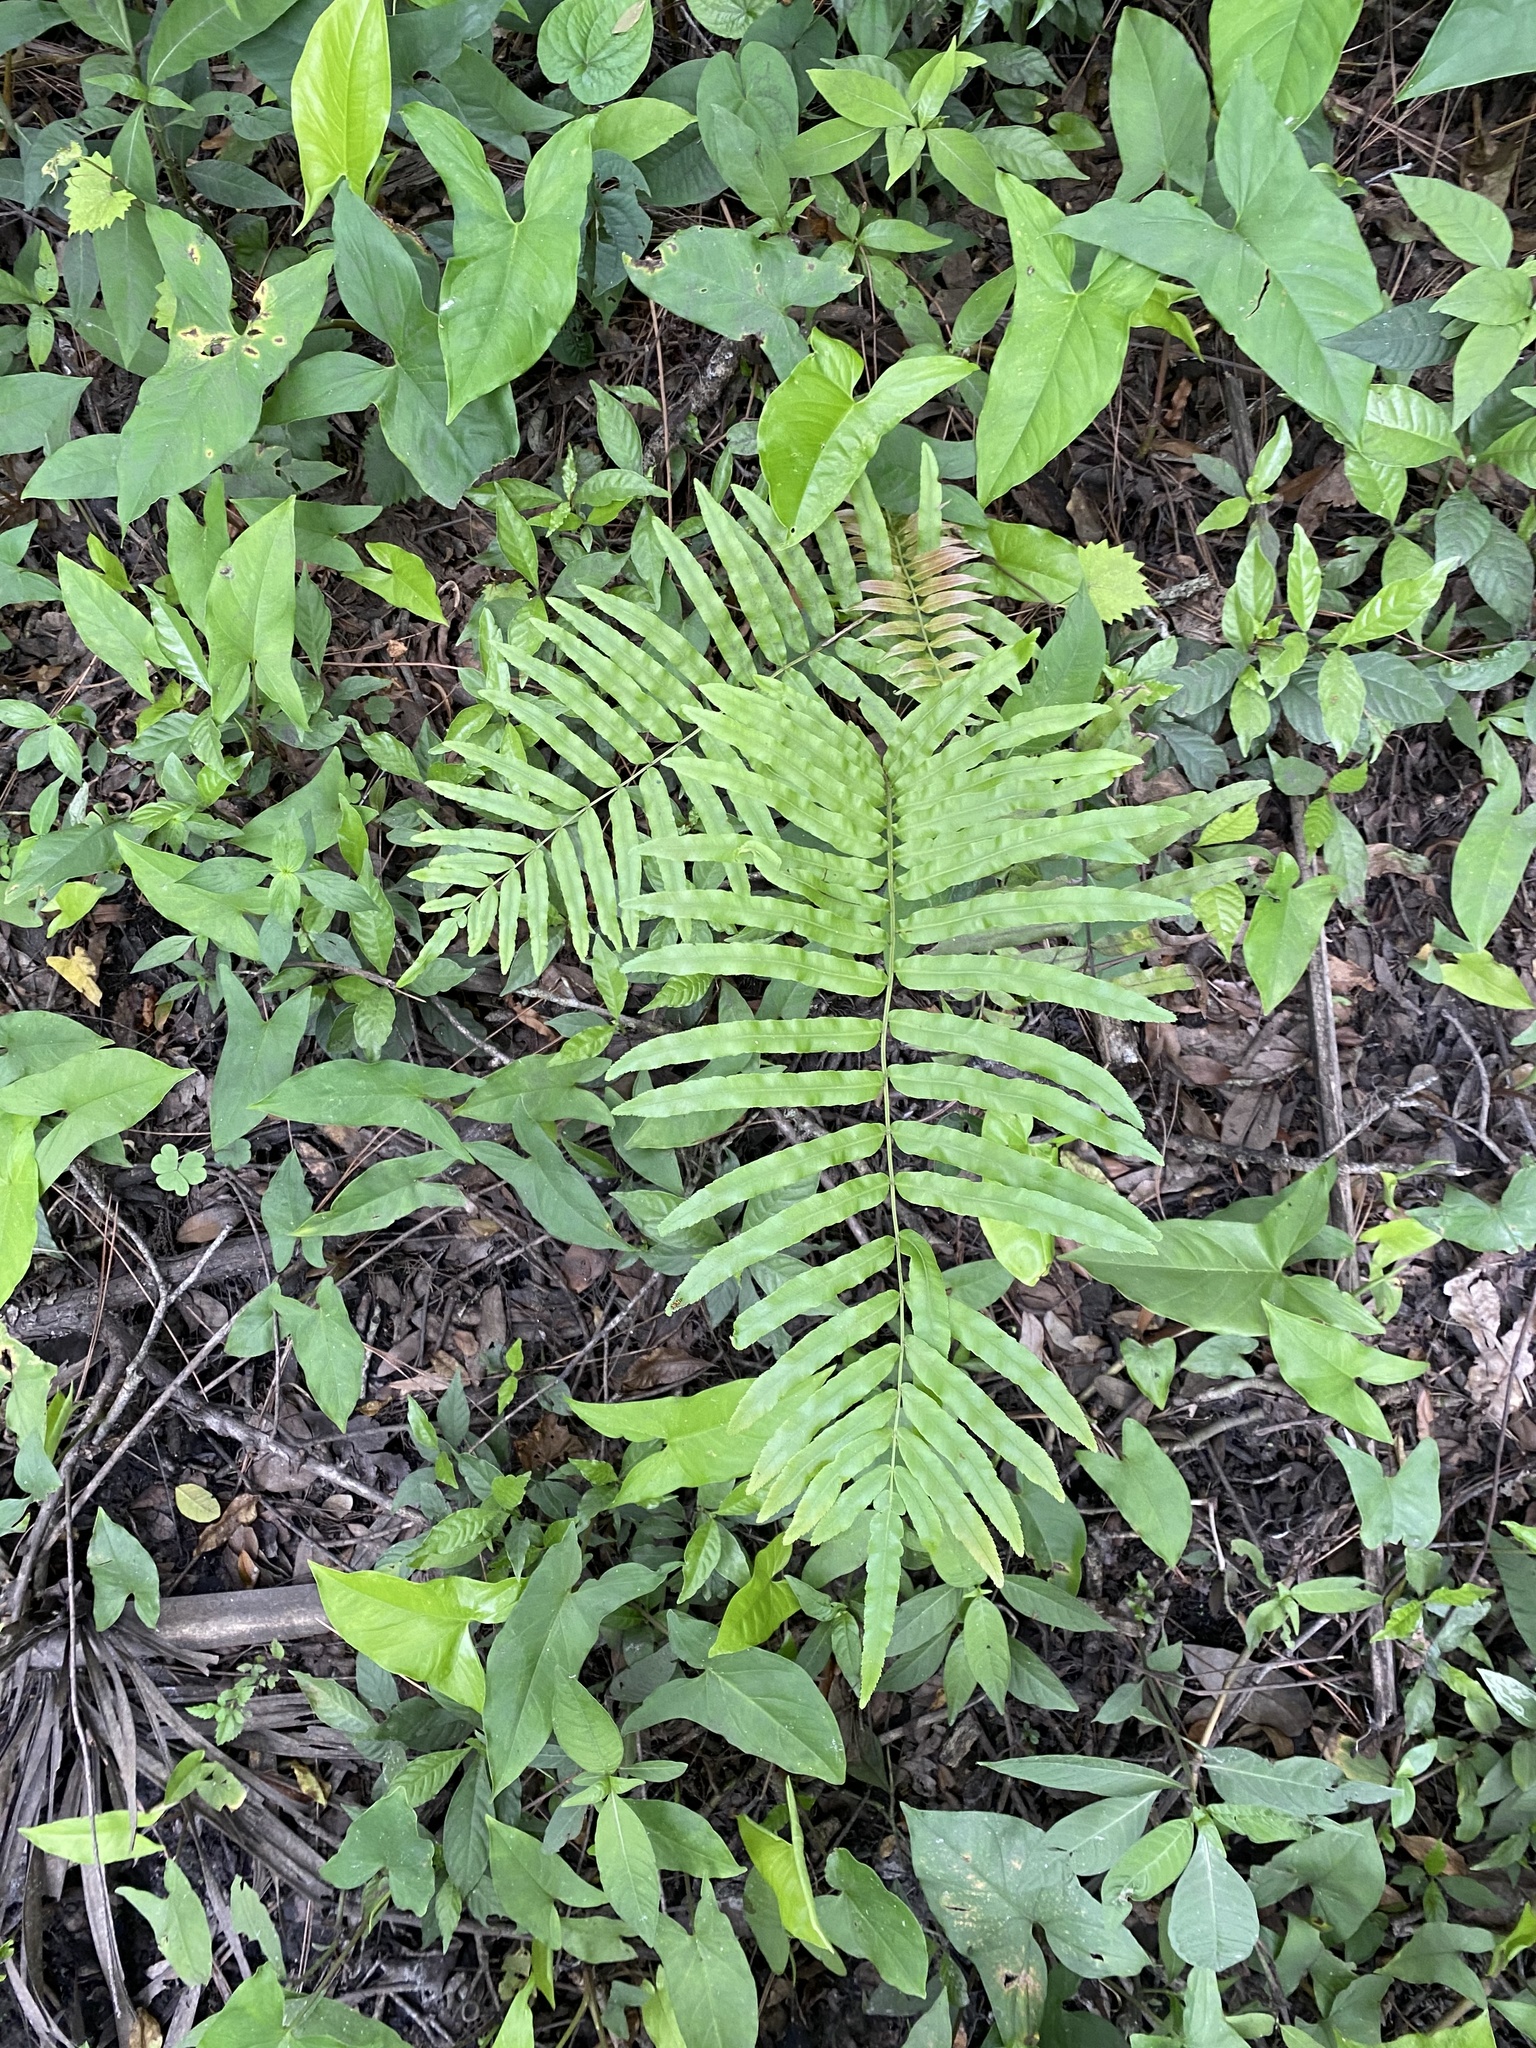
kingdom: Plantae
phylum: Tracheophyta
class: Polypodiopsida
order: Polypodiales
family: Blechnaceae
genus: Telmatoblechnum
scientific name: Telmatoblechnum serrulatum
